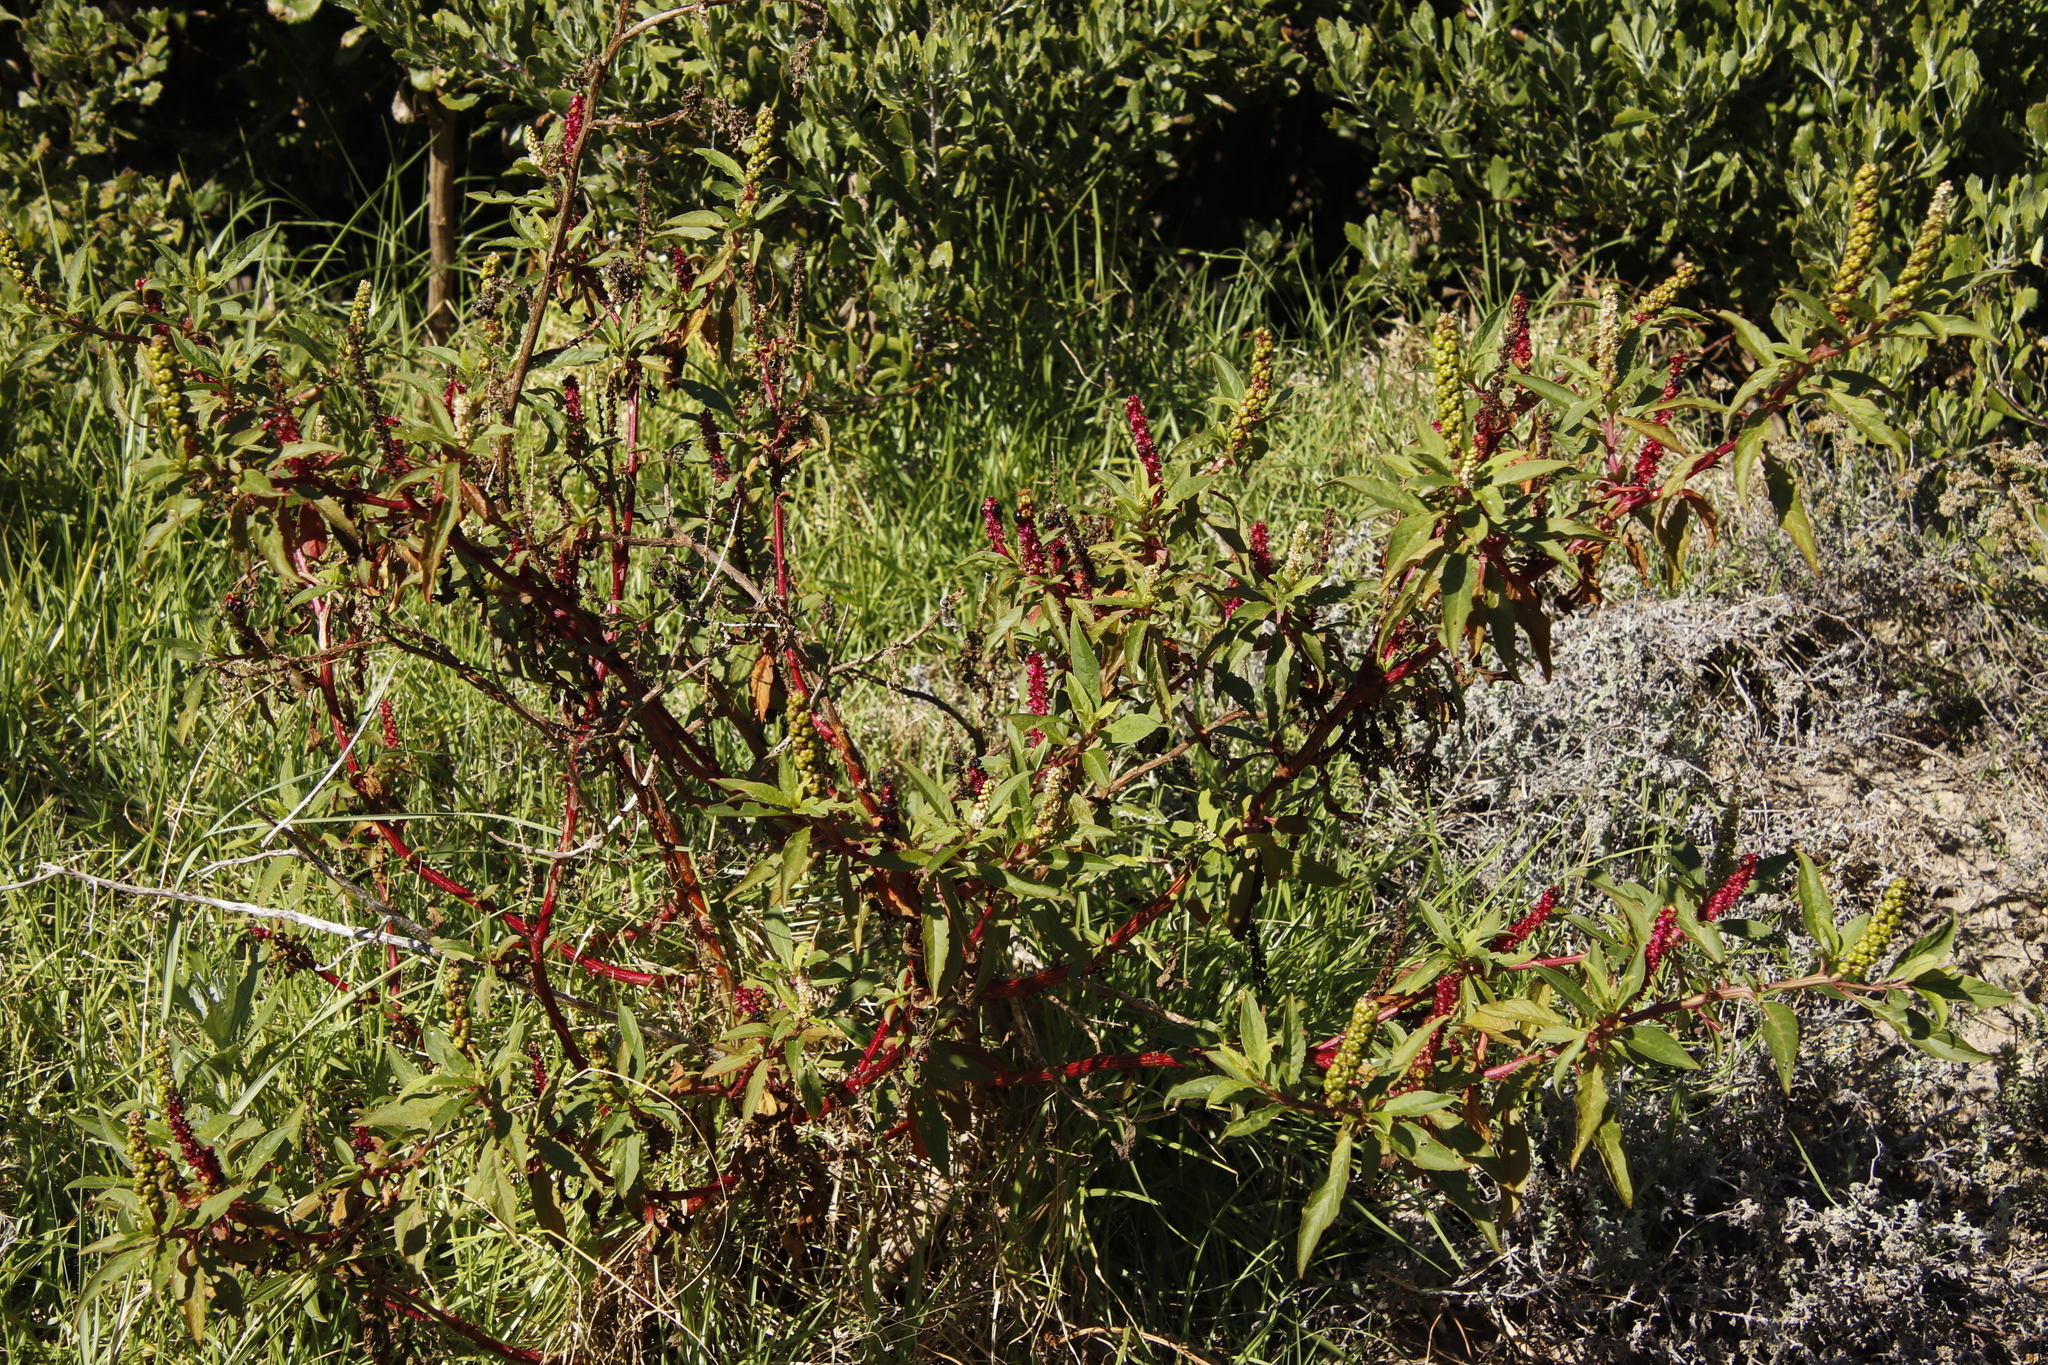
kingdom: Plantae
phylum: Tracheophyta
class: Magnoliopsida
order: Caryophyllales
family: Phytolaccaceae
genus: Phytolacca
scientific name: Phytolacca icosandra
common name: Button pokeweed
